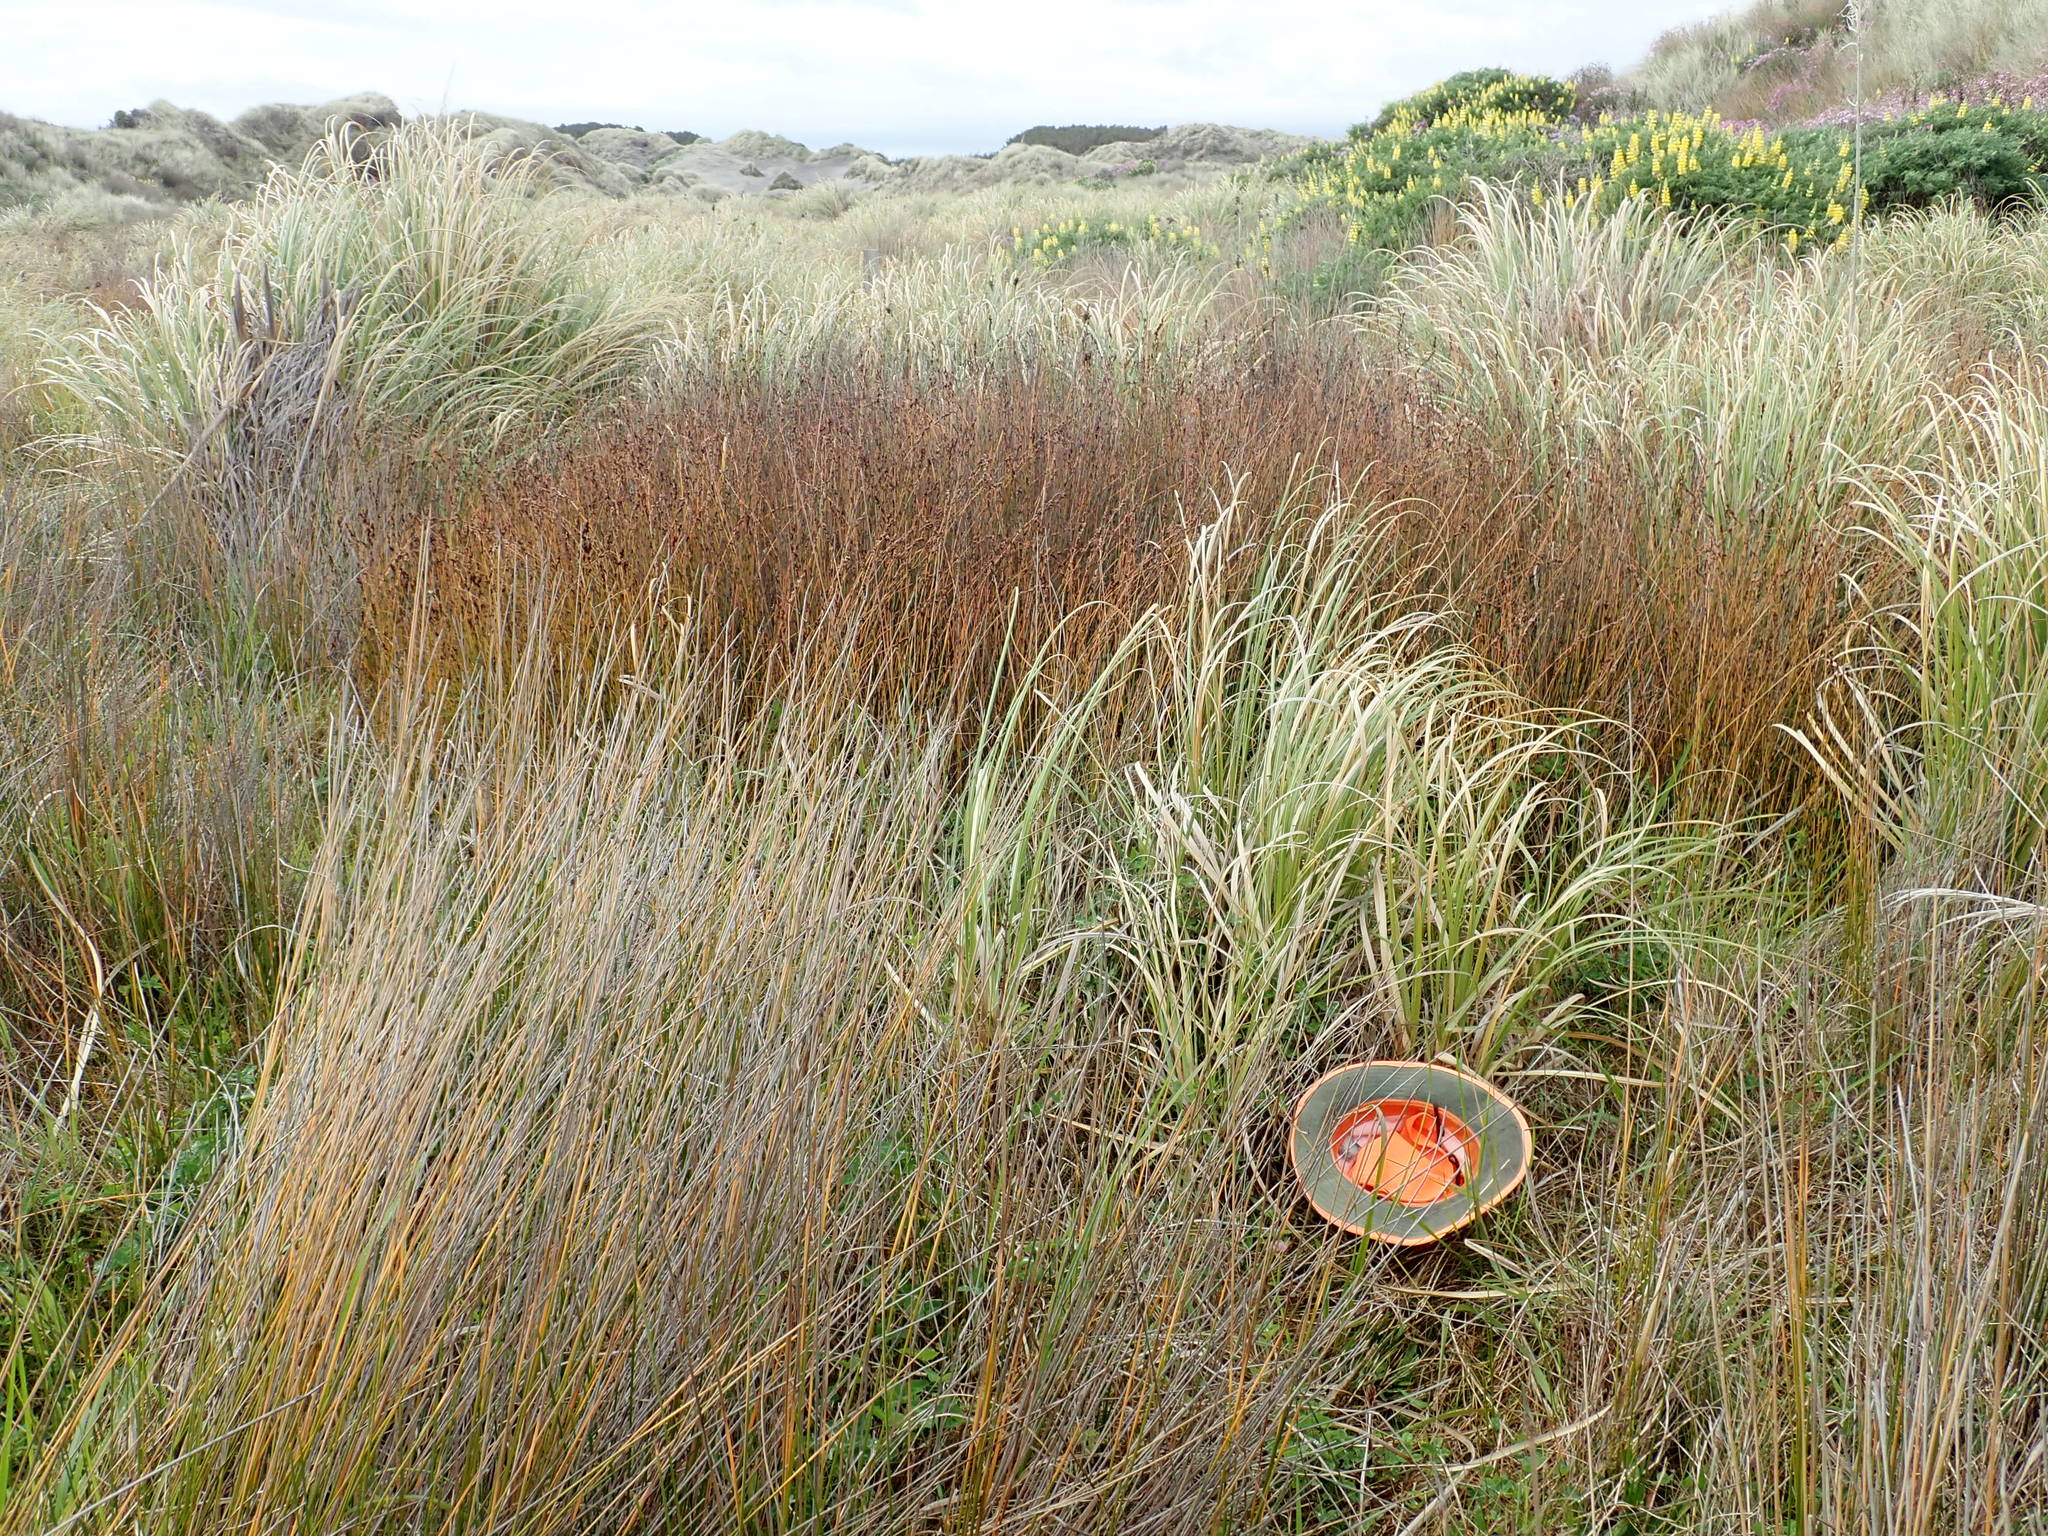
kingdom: Plantae
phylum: Tracheophyta
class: Magnoliopsida
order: Fabales
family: Fabaceae
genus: Trifolium
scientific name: Trifolium pratense
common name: Red clover
